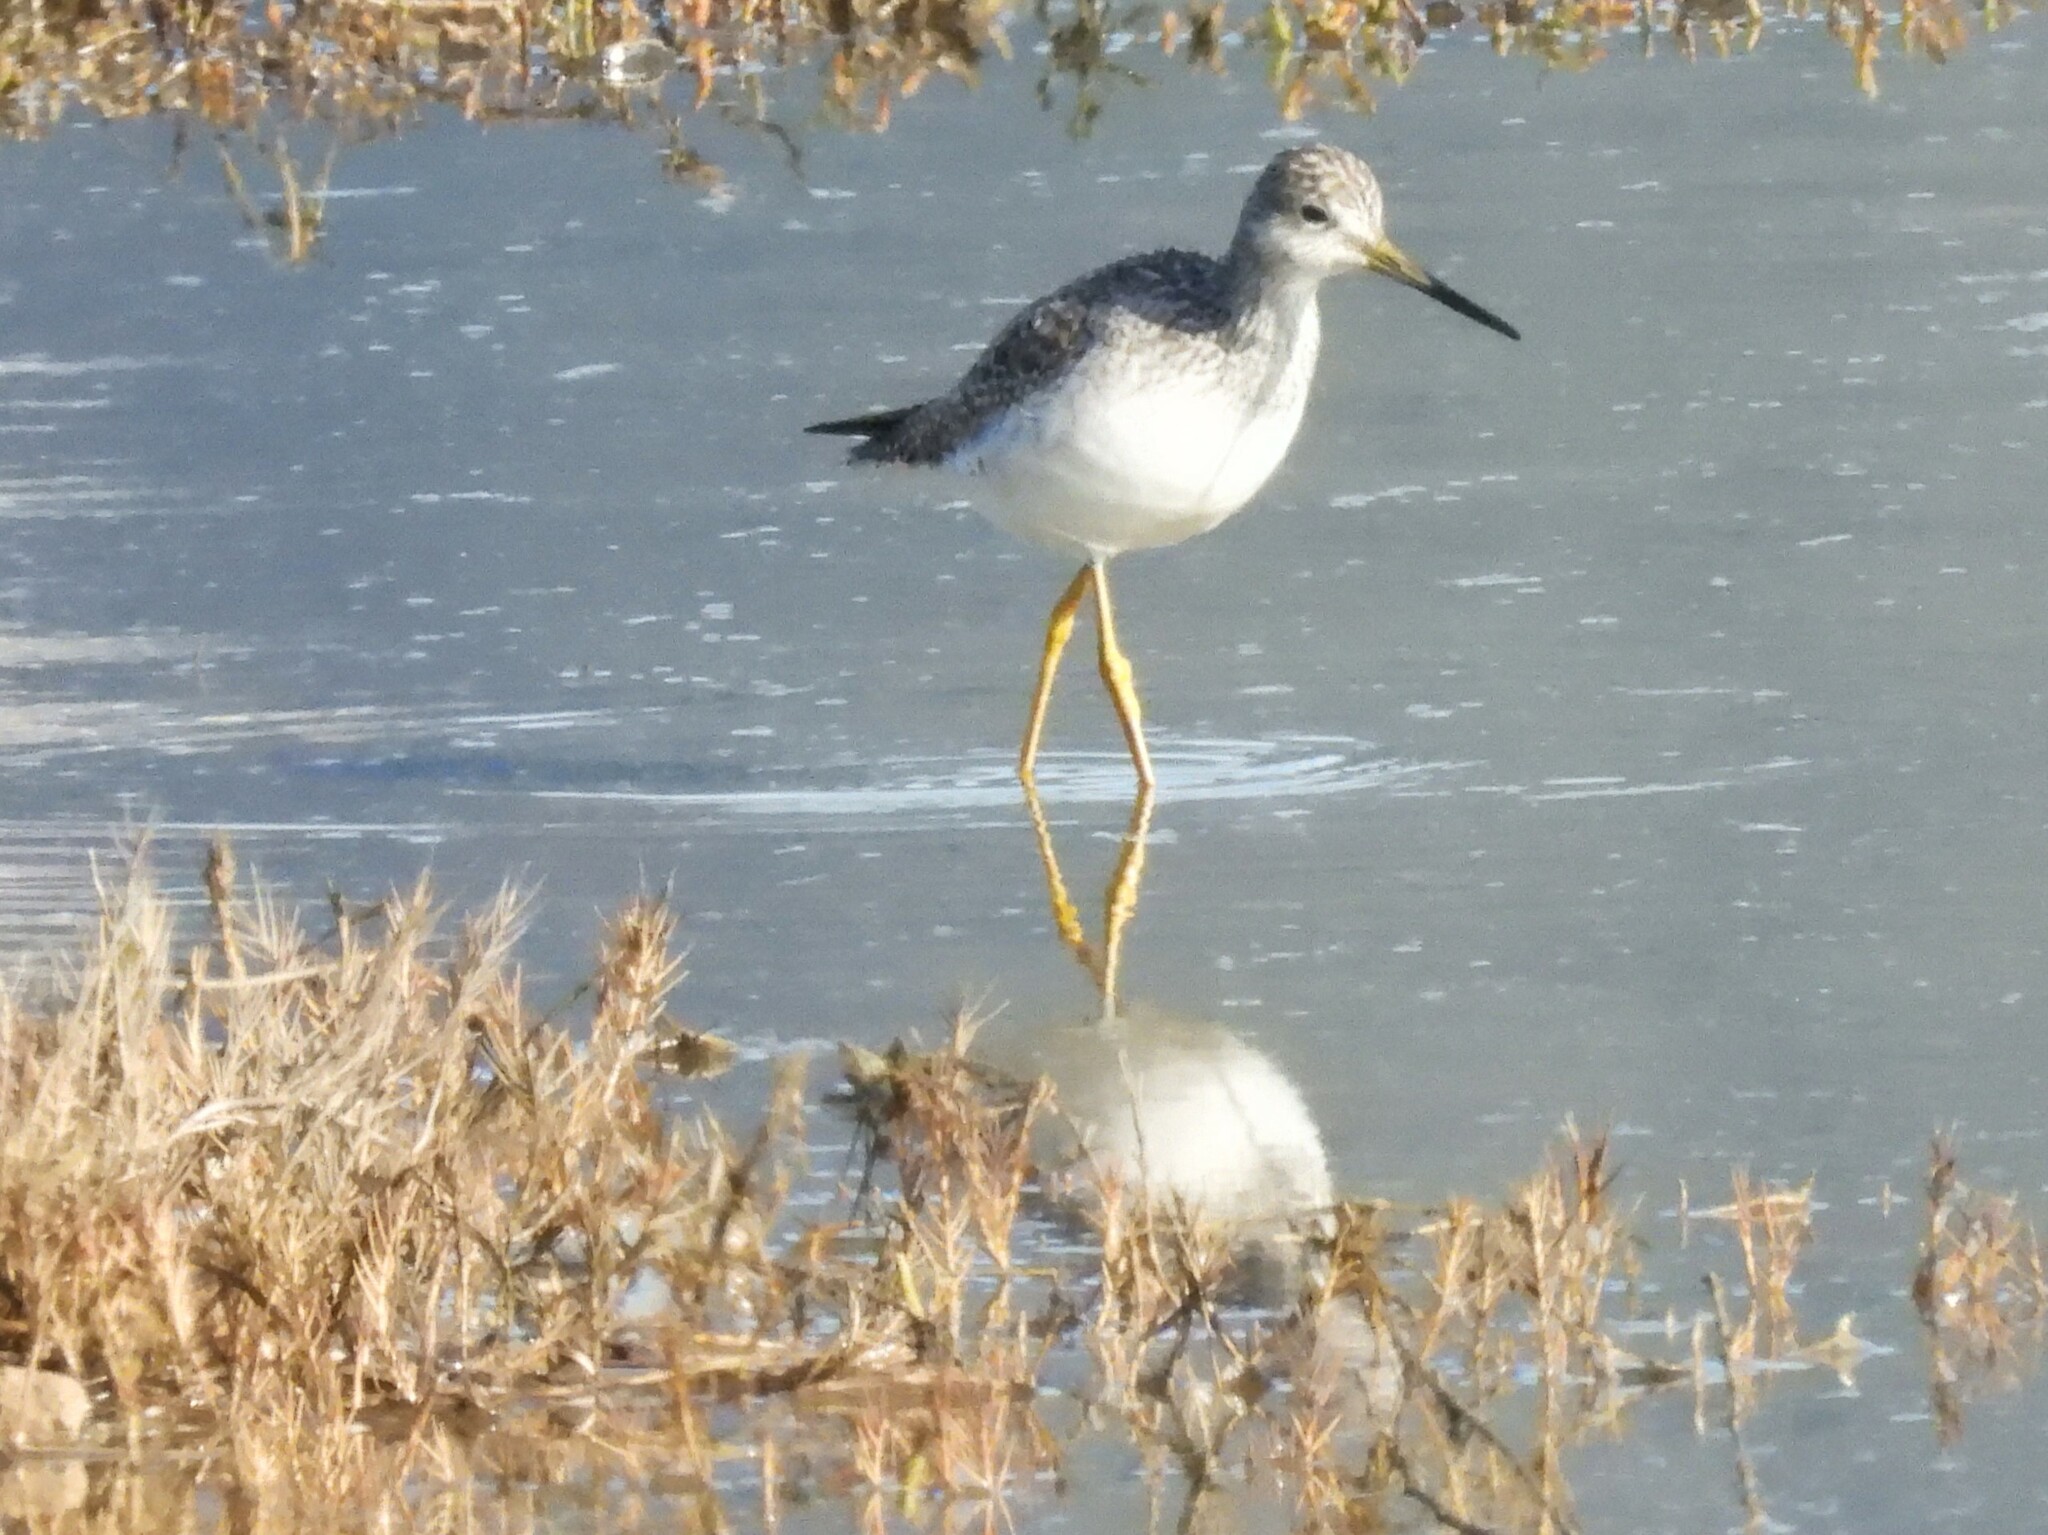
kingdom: Animalia
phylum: Chordata
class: Aves
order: Charadriiformes
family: Scolopacidae
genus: Tringa
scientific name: Tringa melanoleuca
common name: Greater yellowlegs
